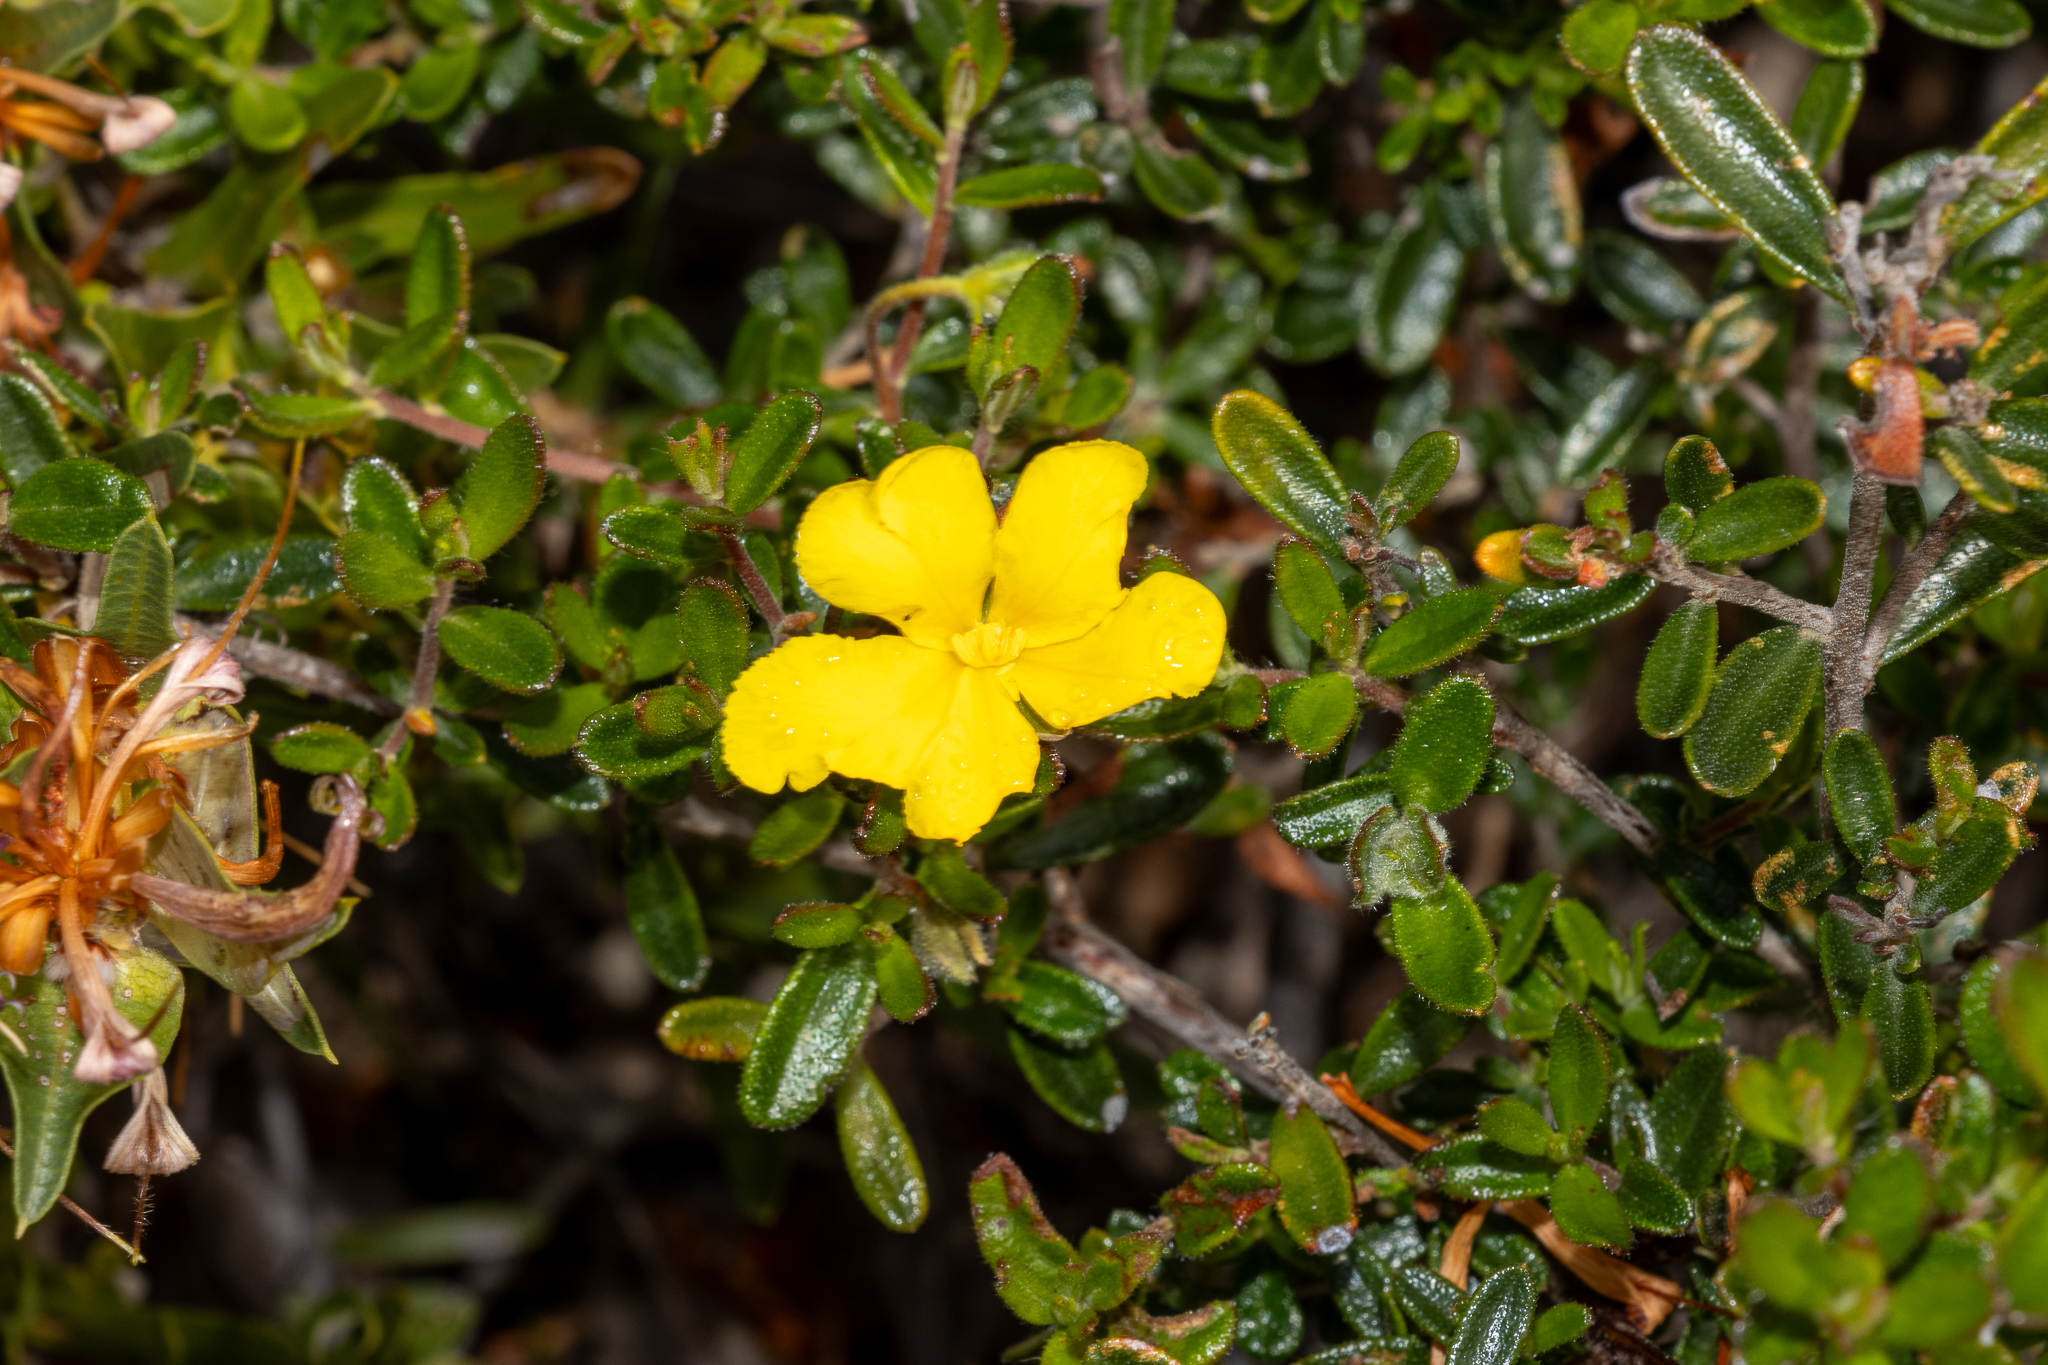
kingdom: Plantae
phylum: Tracheophyta
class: Magnoliopsida
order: Dilleniales
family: Dilleniaceae
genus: Hibbertia
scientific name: Hibbertia hypericoides
